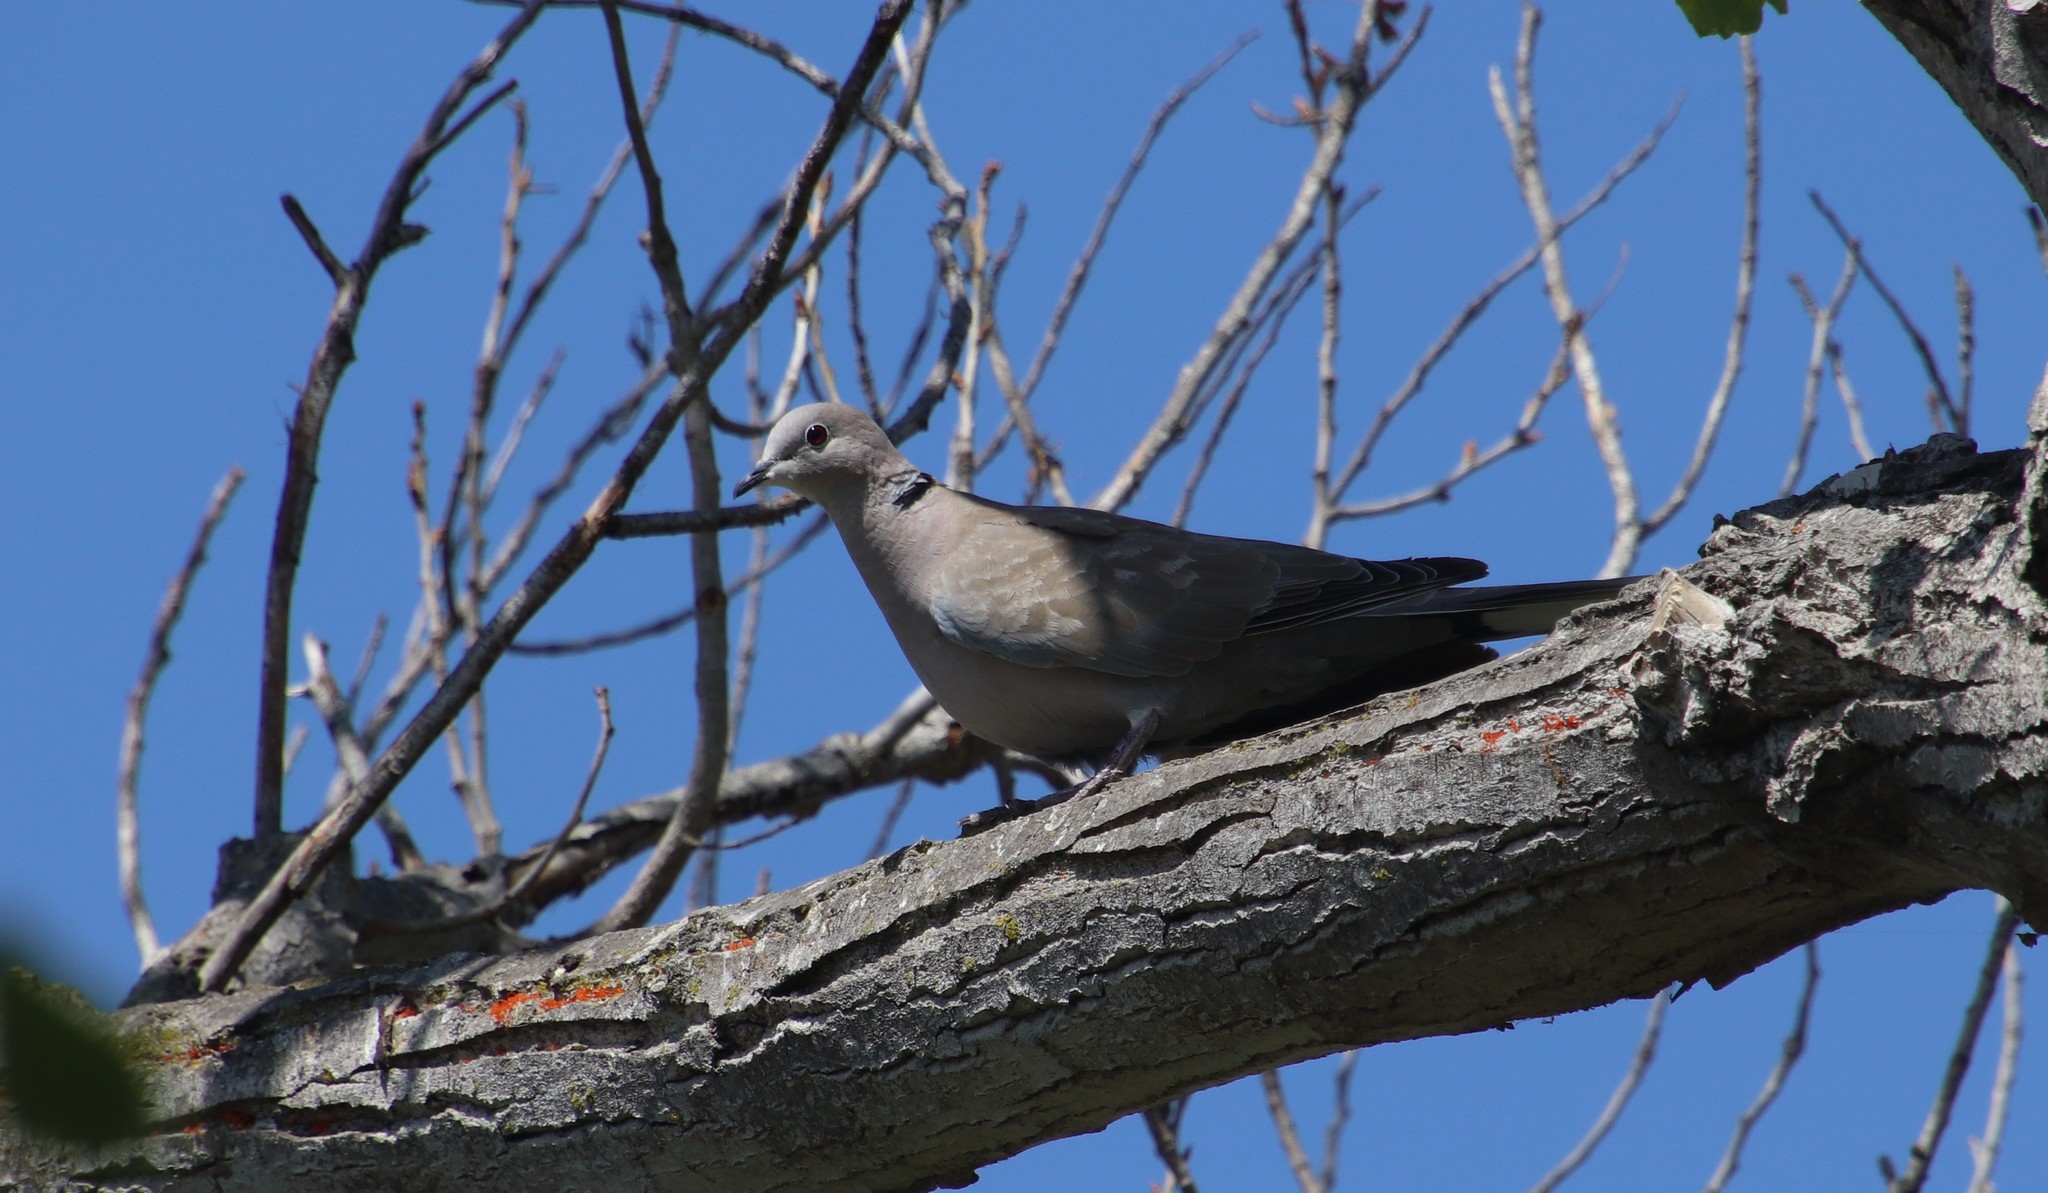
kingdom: Animalia
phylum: Chordata
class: Aves
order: Columbiformes
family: Columbidae
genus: Streptopelia
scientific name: Streptopelia decaocto
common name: Eurasian collared dove
